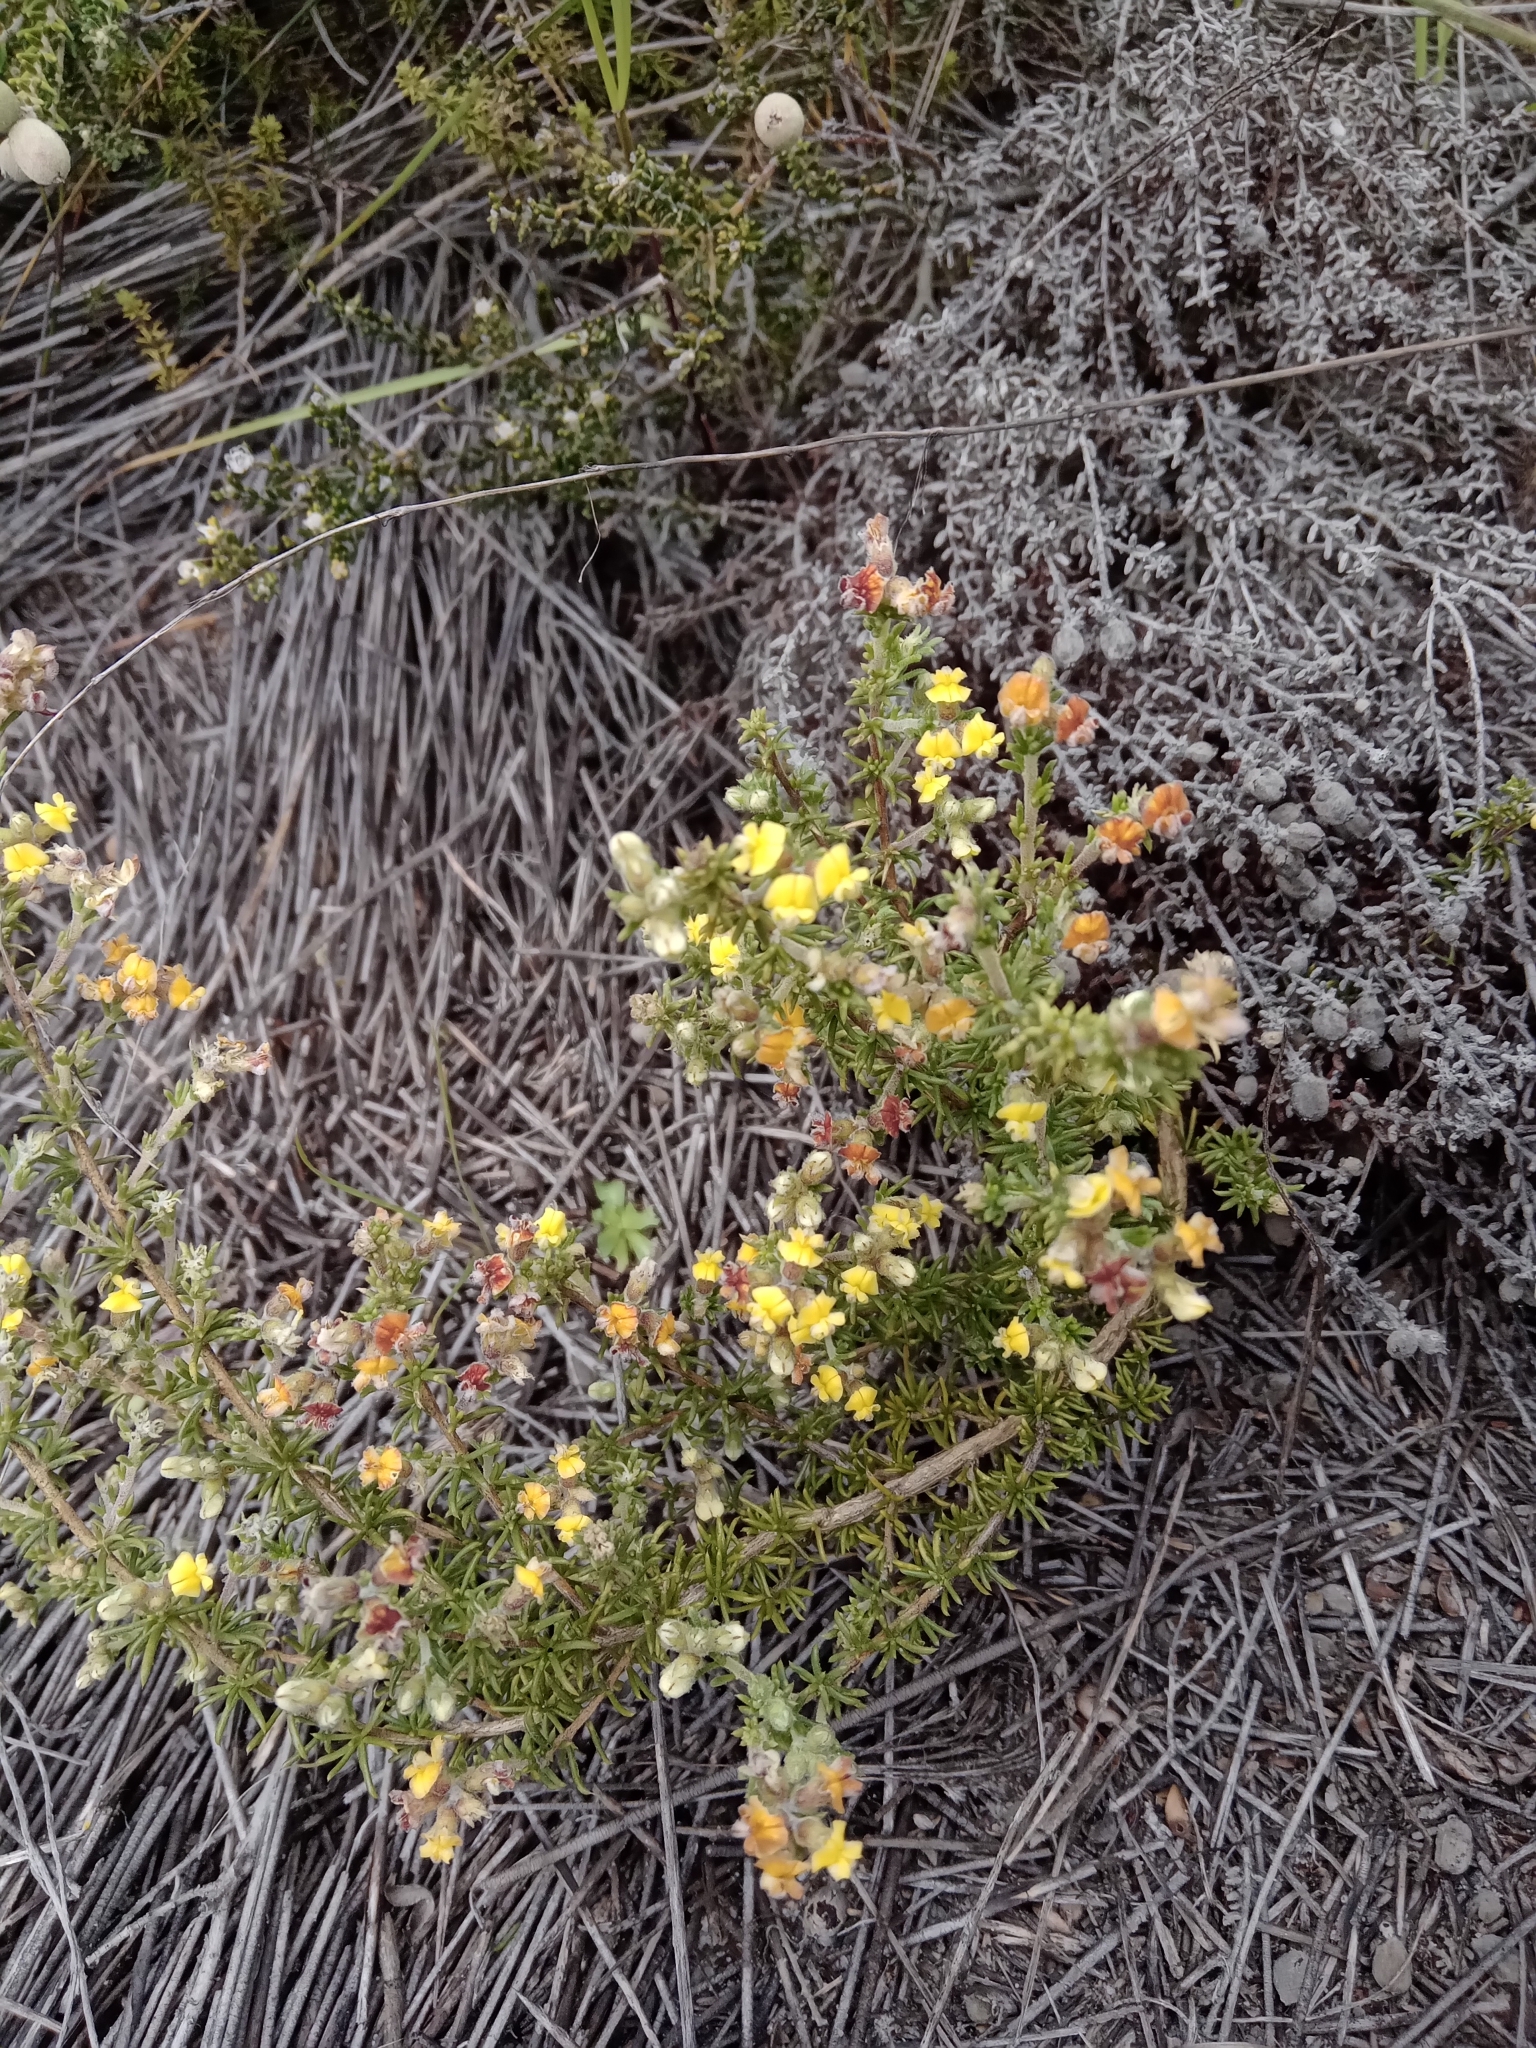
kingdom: Plantae
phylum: Tracheophyta
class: Magnoliopsida
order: Fabales
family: Fabaceae
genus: Aspalathus
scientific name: Aspalathus albens
